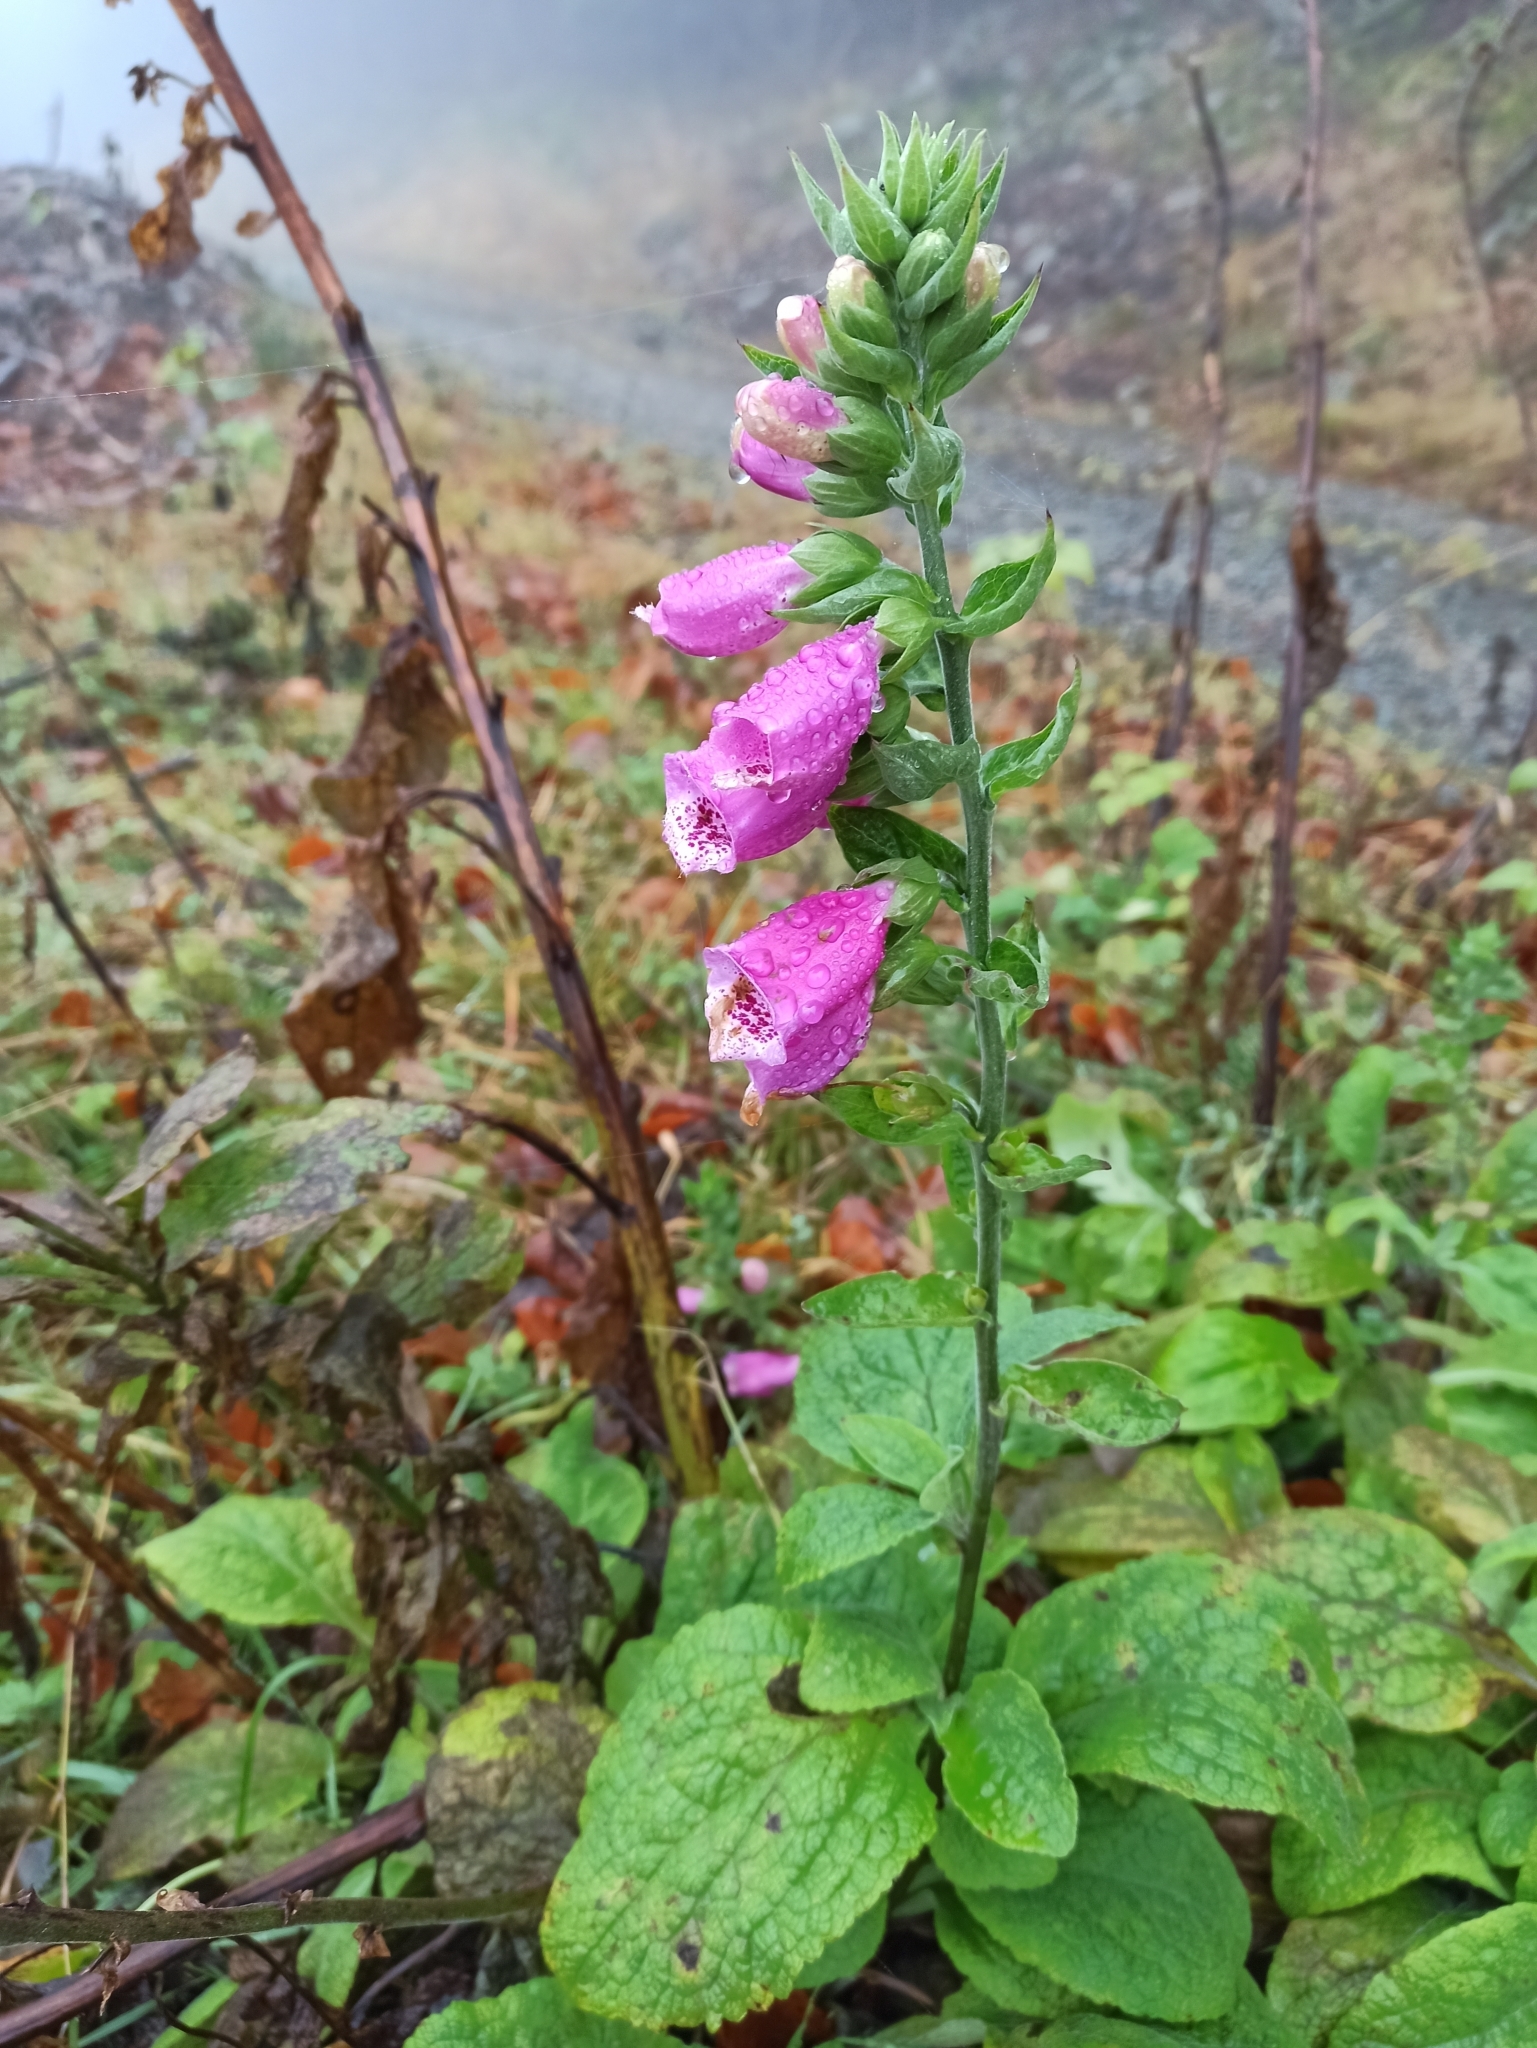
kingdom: Plantae
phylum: Tracheophyta
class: Magnoliopsida
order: Lamiales
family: Plantaginaceae
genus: Digitalis
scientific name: Digitalis purpurea
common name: Foxglove
